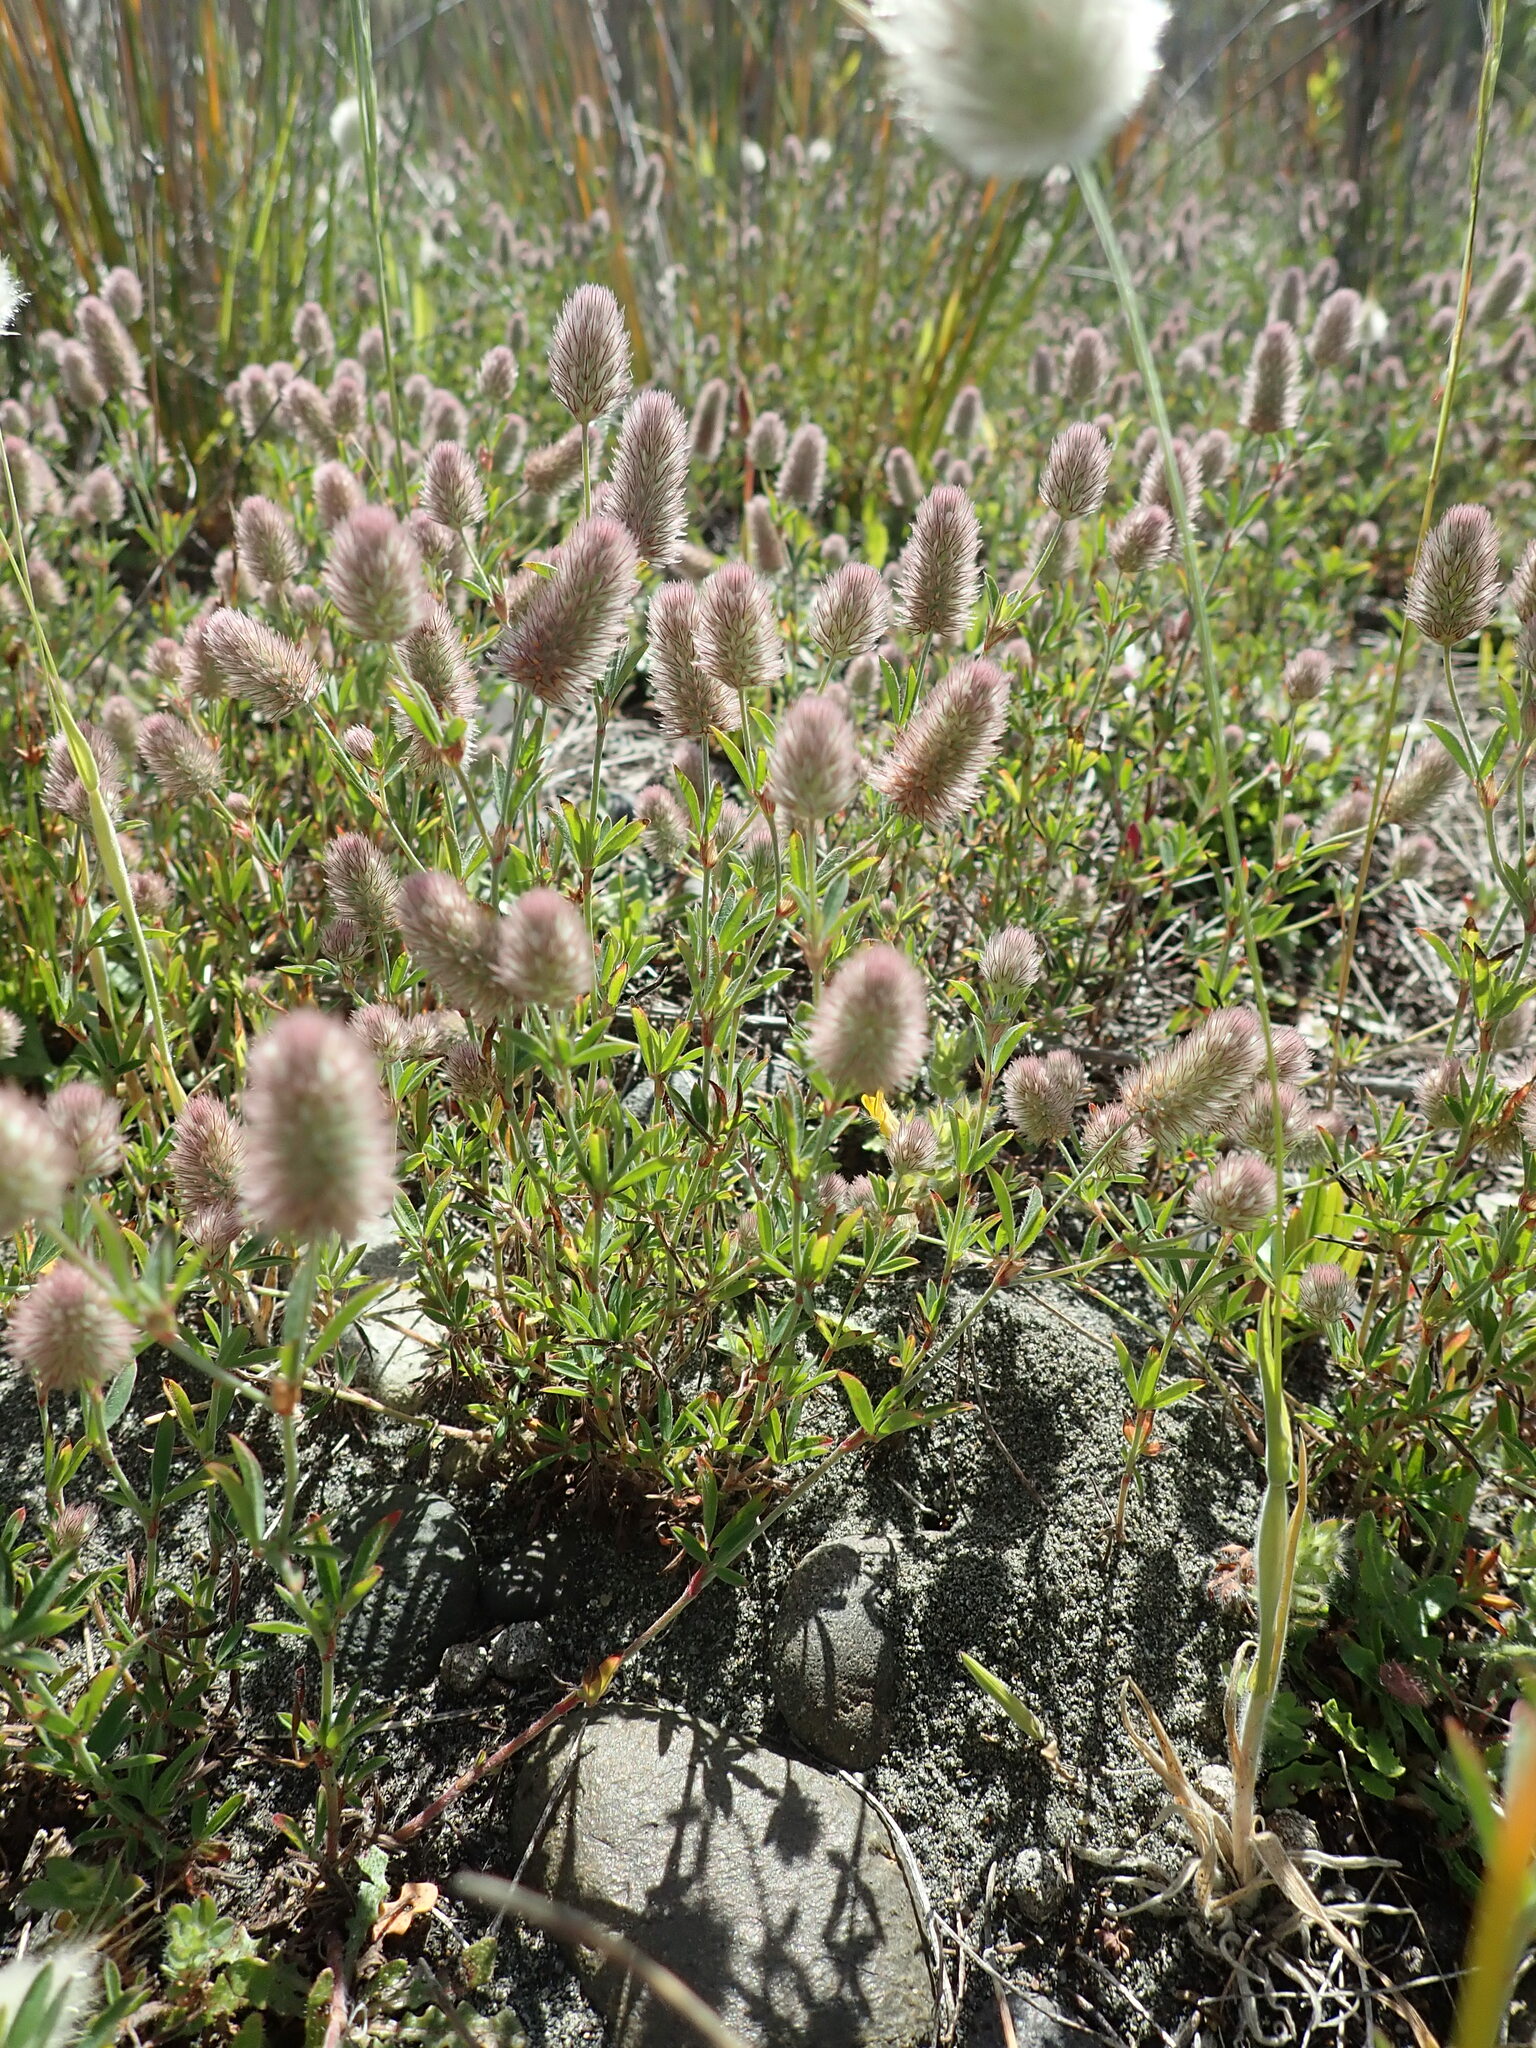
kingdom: Plantae
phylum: Tracheophyta
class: Magnoliopsida
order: Fabales
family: Fabaceae
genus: Trifolium
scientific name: Trifolium arvense
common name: Hare's-foot clover
